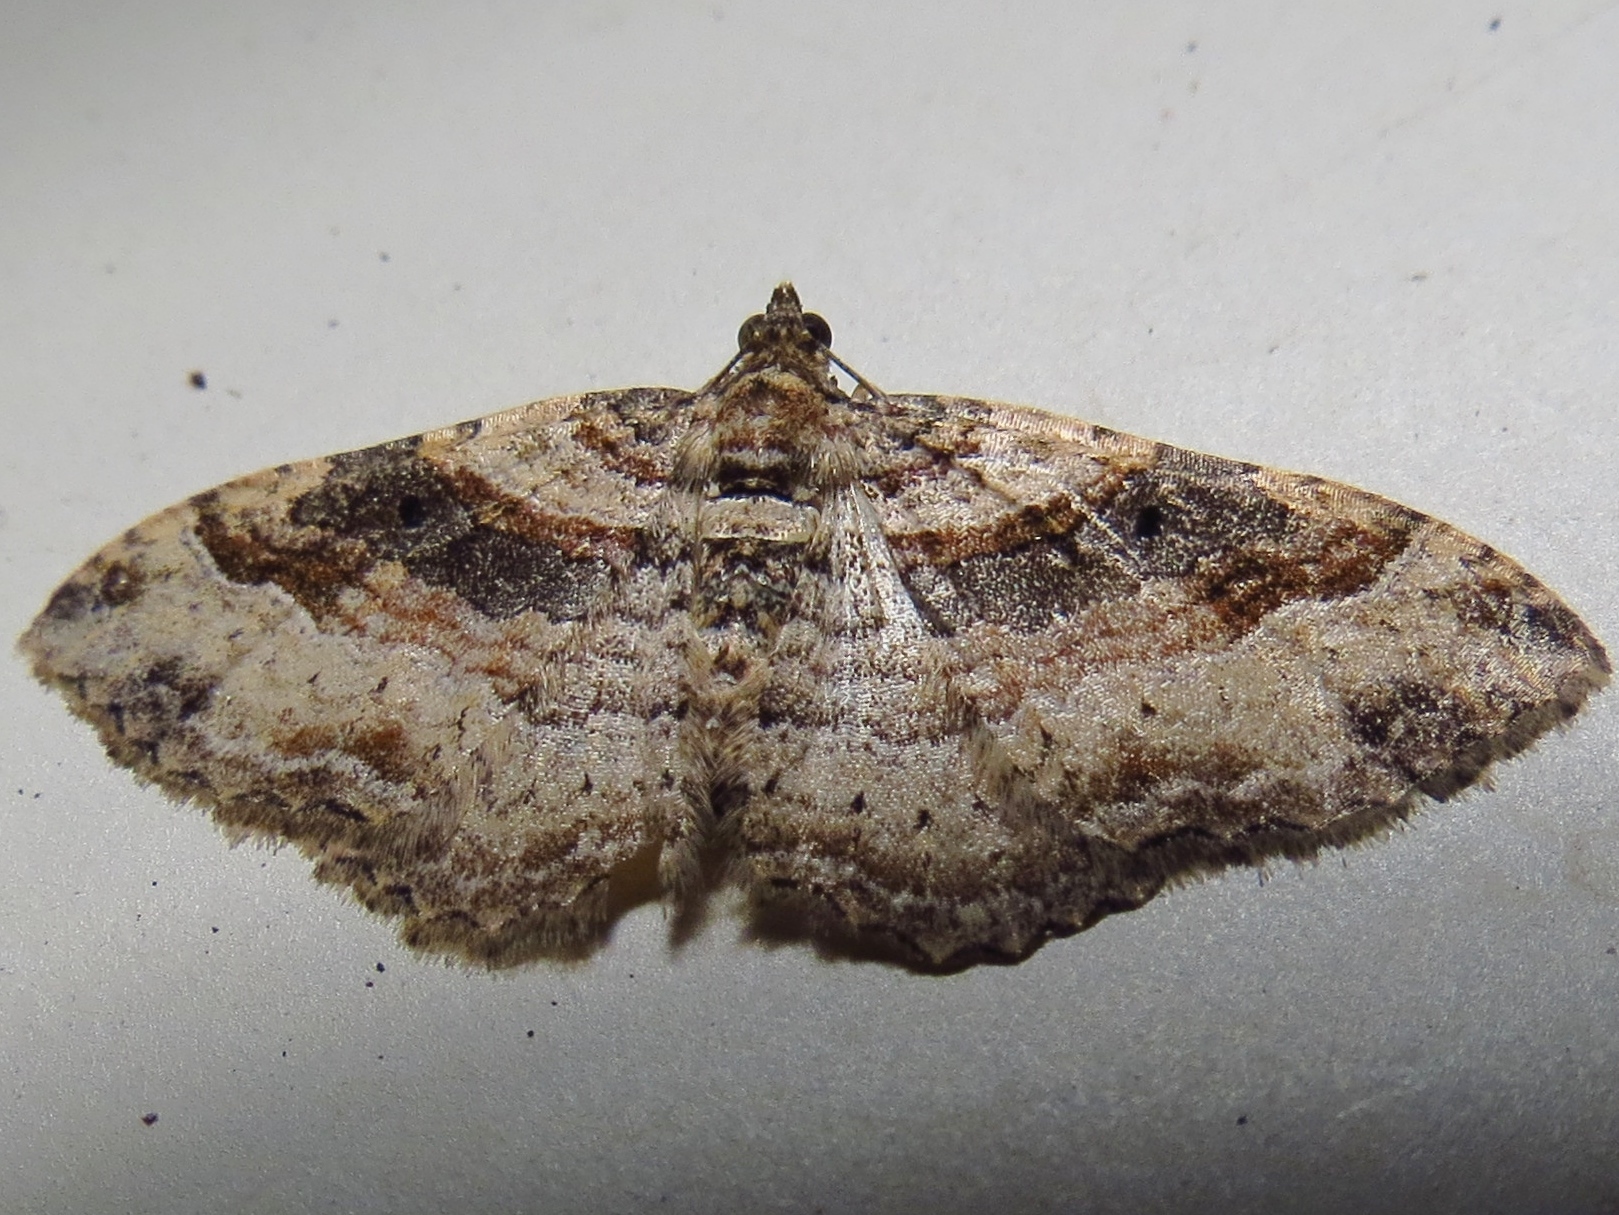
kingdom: Animalia
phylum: Arthropoda
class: Insecta
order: Lepidoptera
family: Geometridae
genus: Costaconvexa
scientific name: Costaconvexa centrostrigaria
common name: Bent-line carpet
